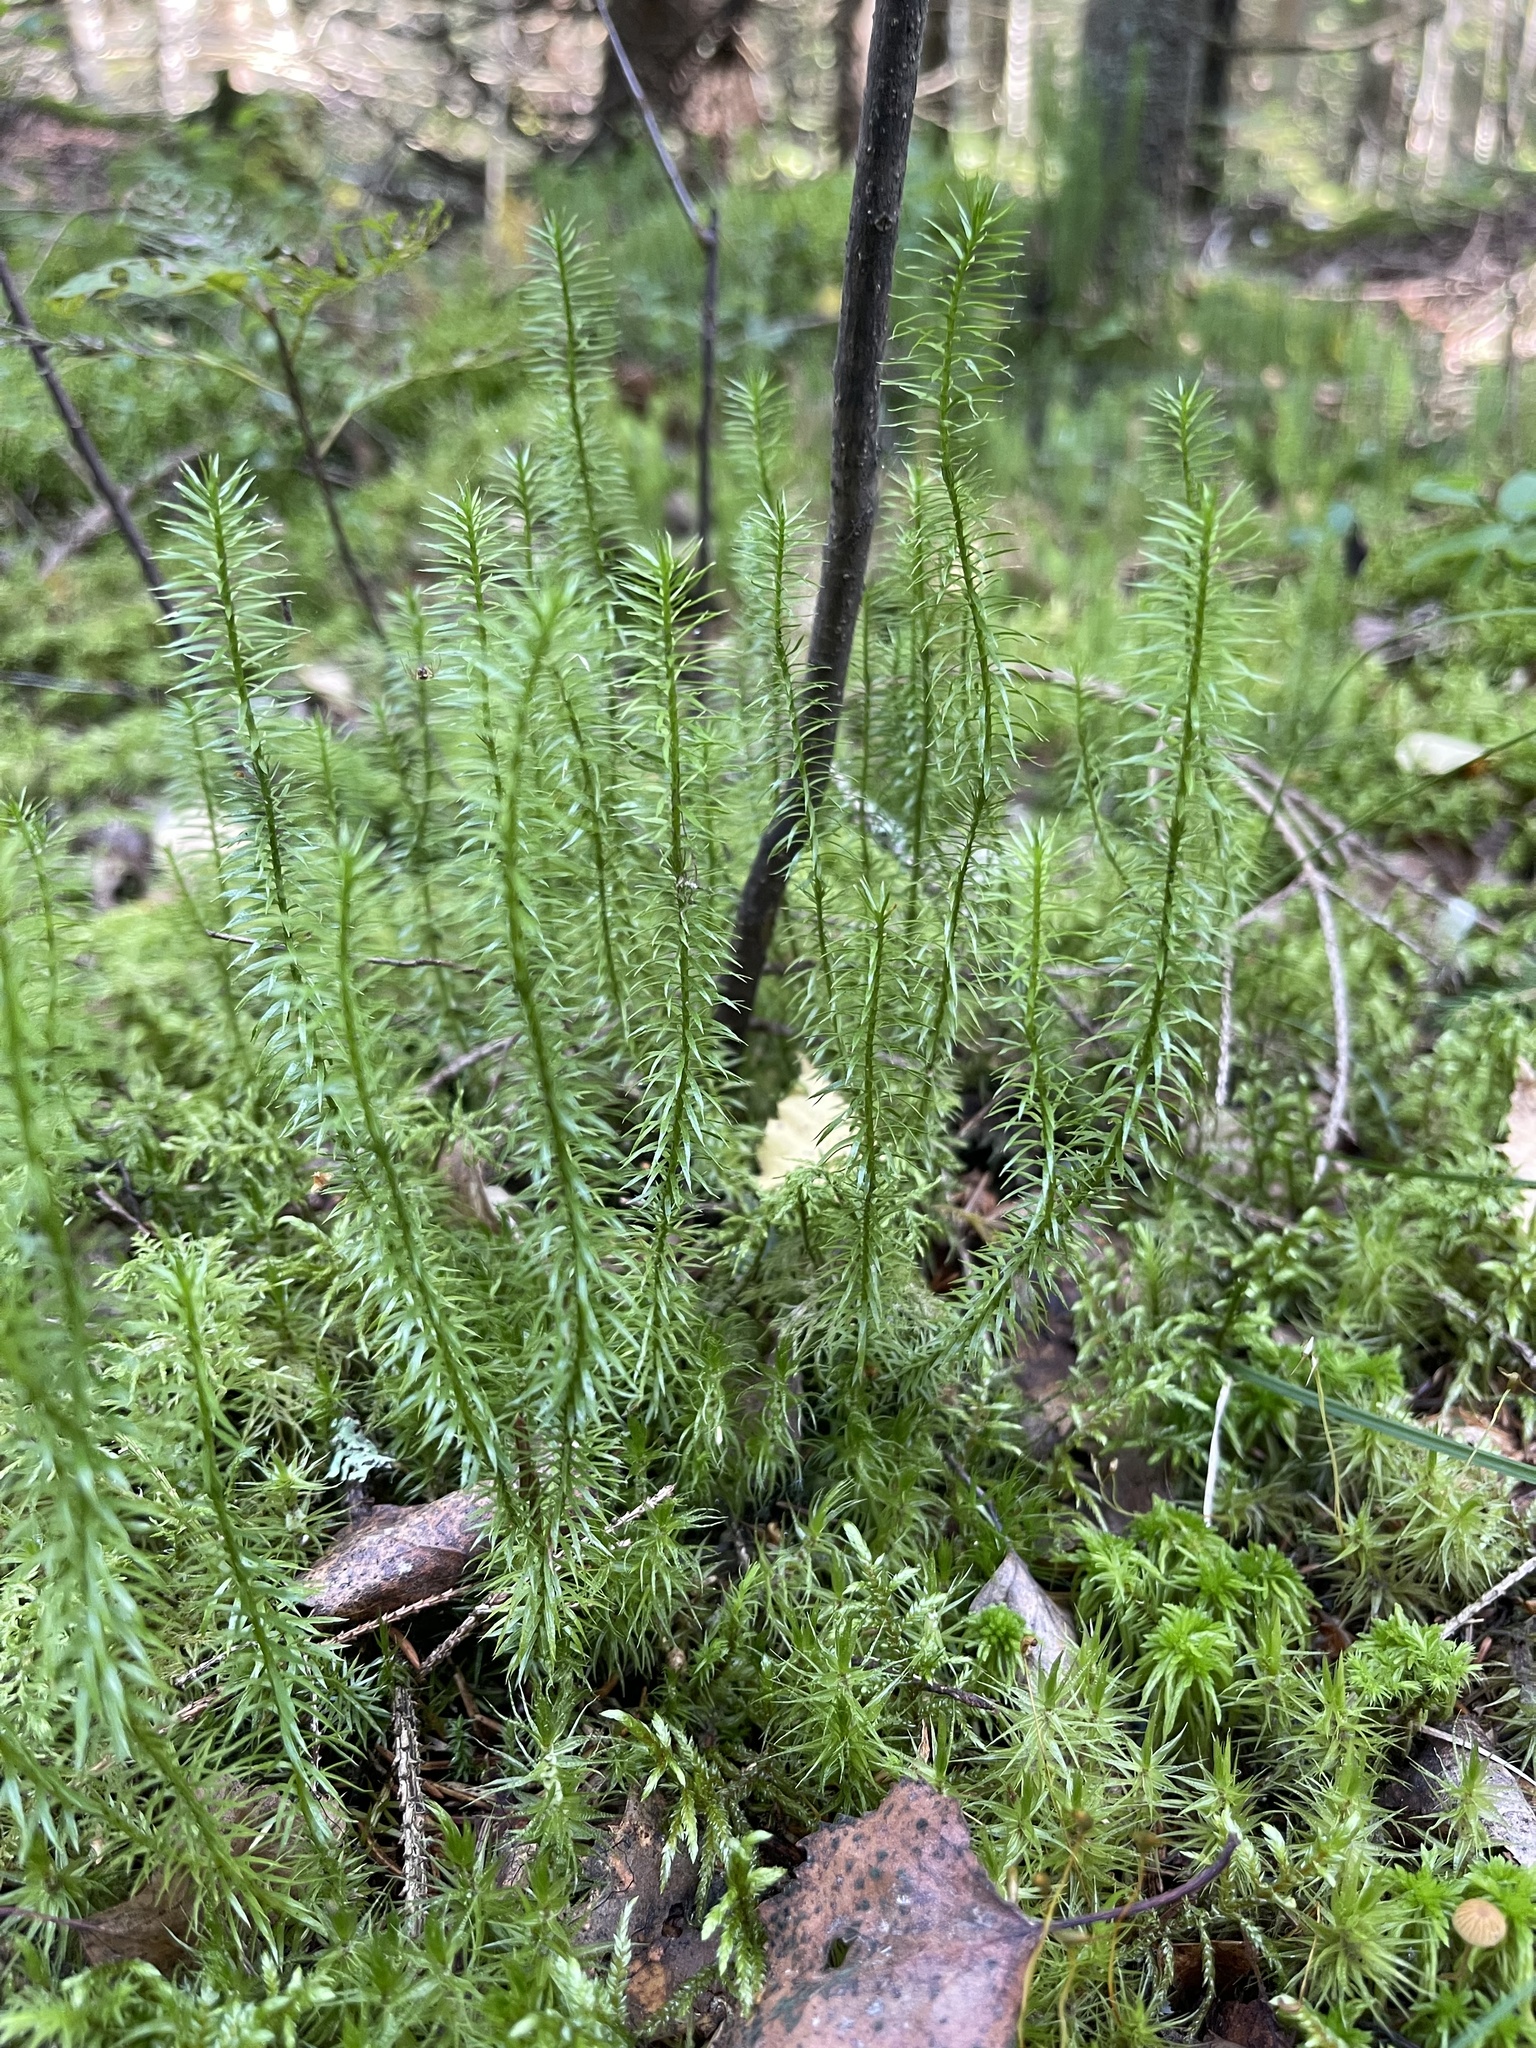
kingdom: Plantae
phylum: Tracheophyta
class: Lycopodiopsida
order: Lycopodiales
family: Lycopodiaceae
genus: Spinulum
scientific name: Spinulum annotinum
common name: Interrupted club-moss
